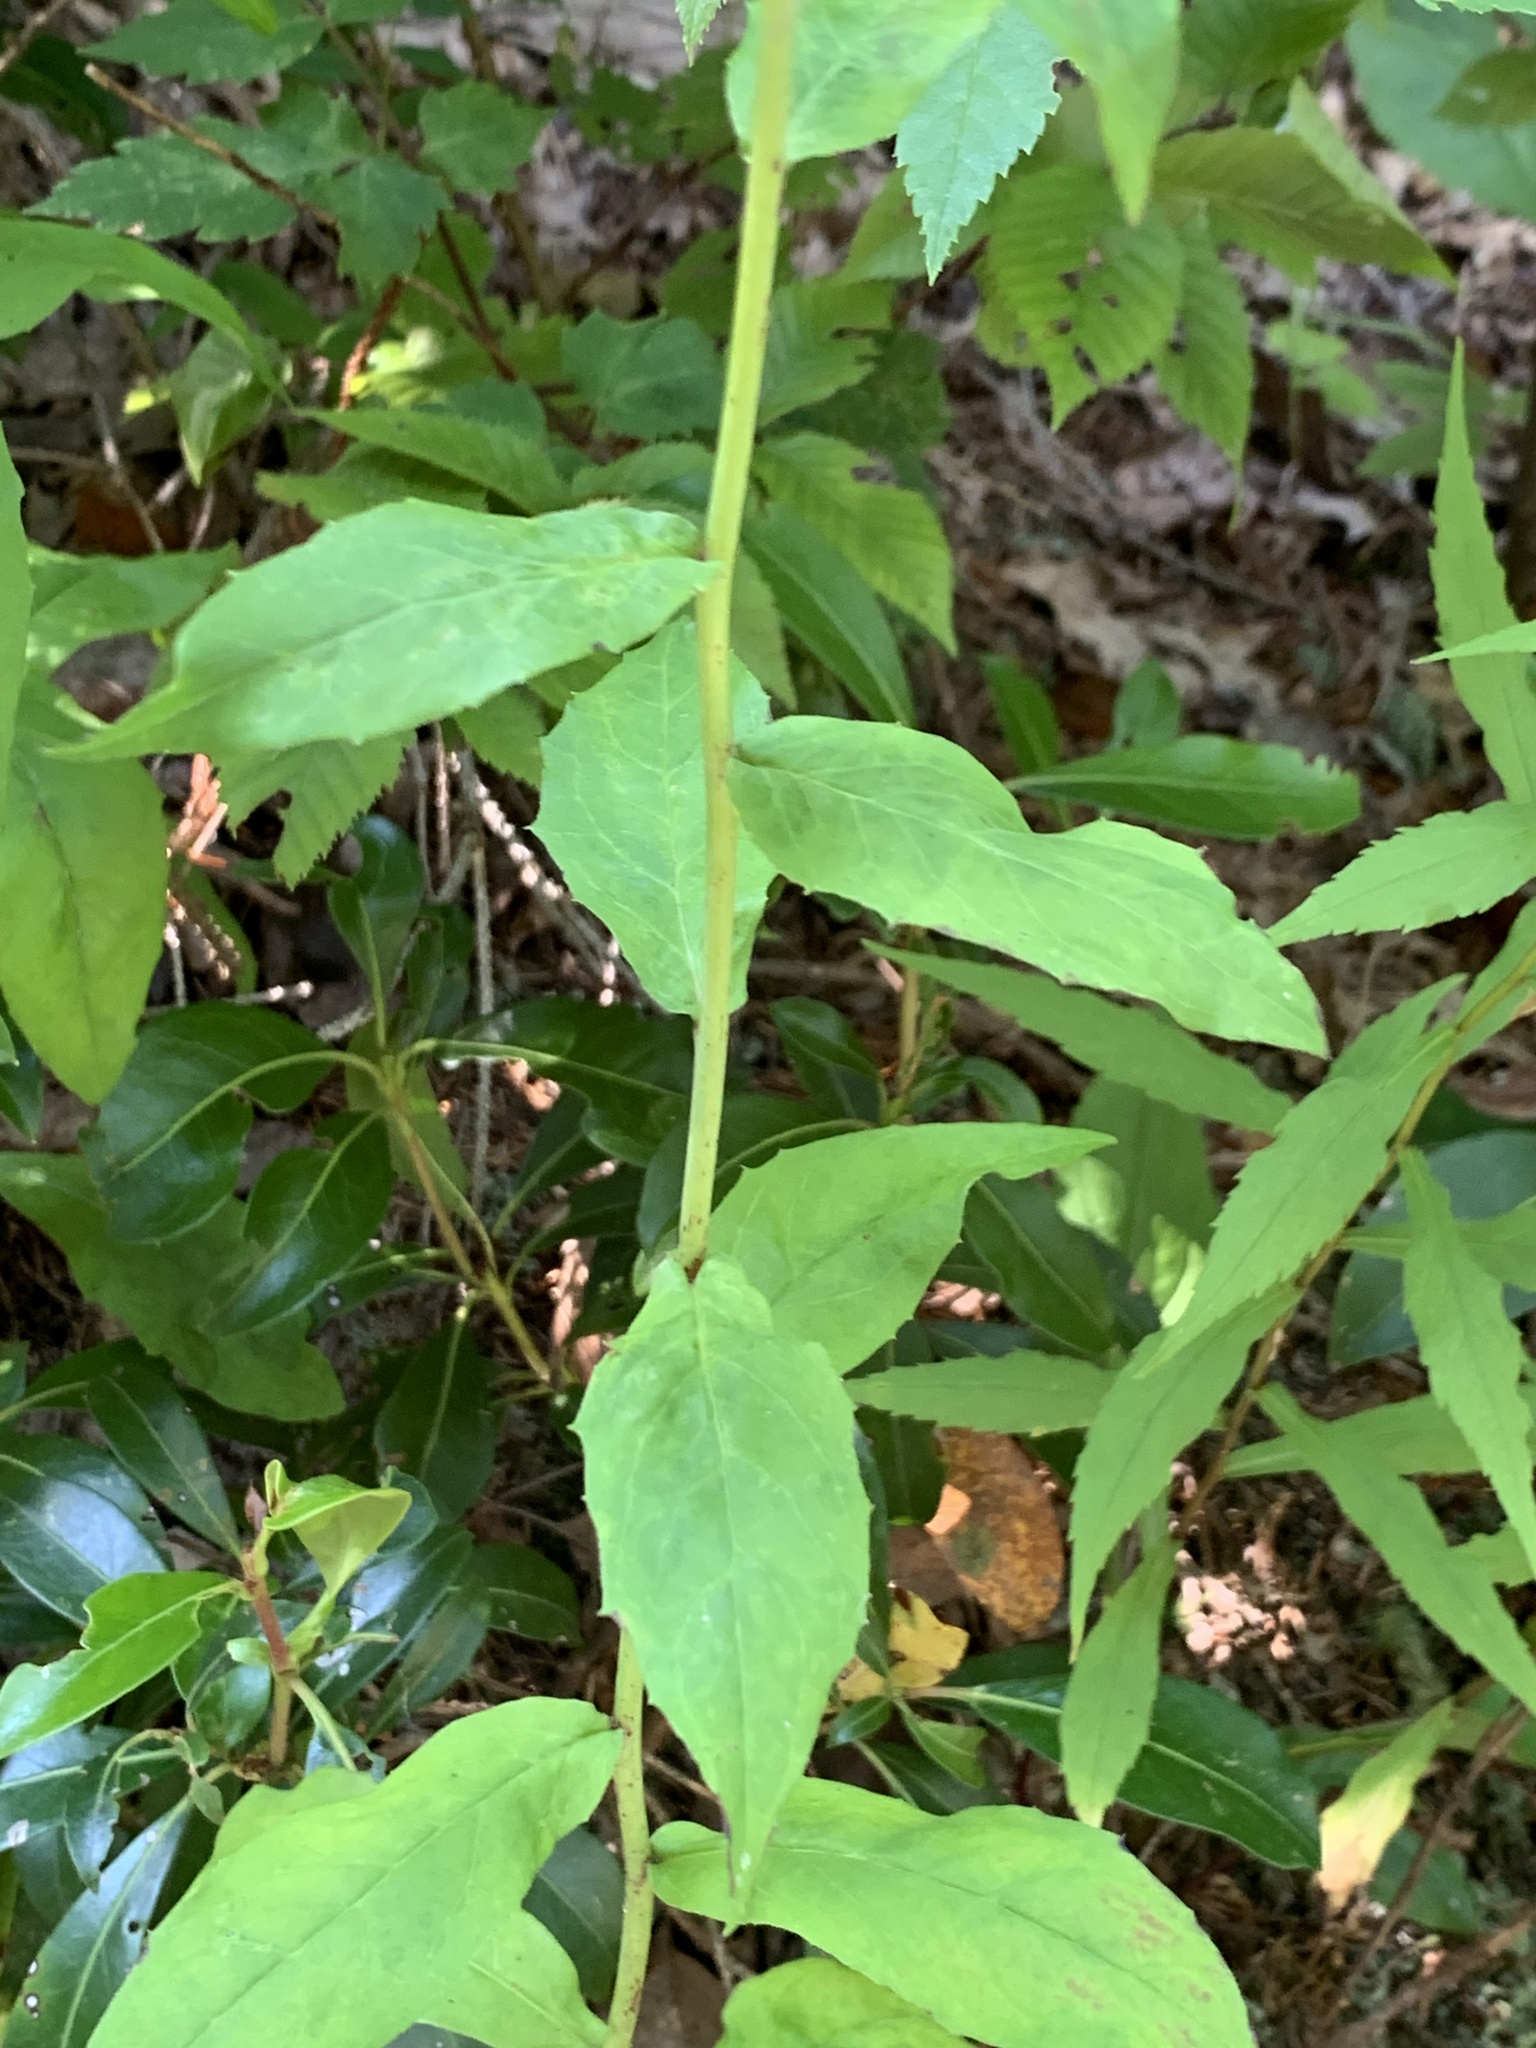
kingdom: Plantae
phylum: Tracheophyta
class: Magnoliopsida
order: Asterales
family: Asteraceae
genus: Hieracium
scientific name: Hieracium paniculatum
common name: Allegheny hawkweed
